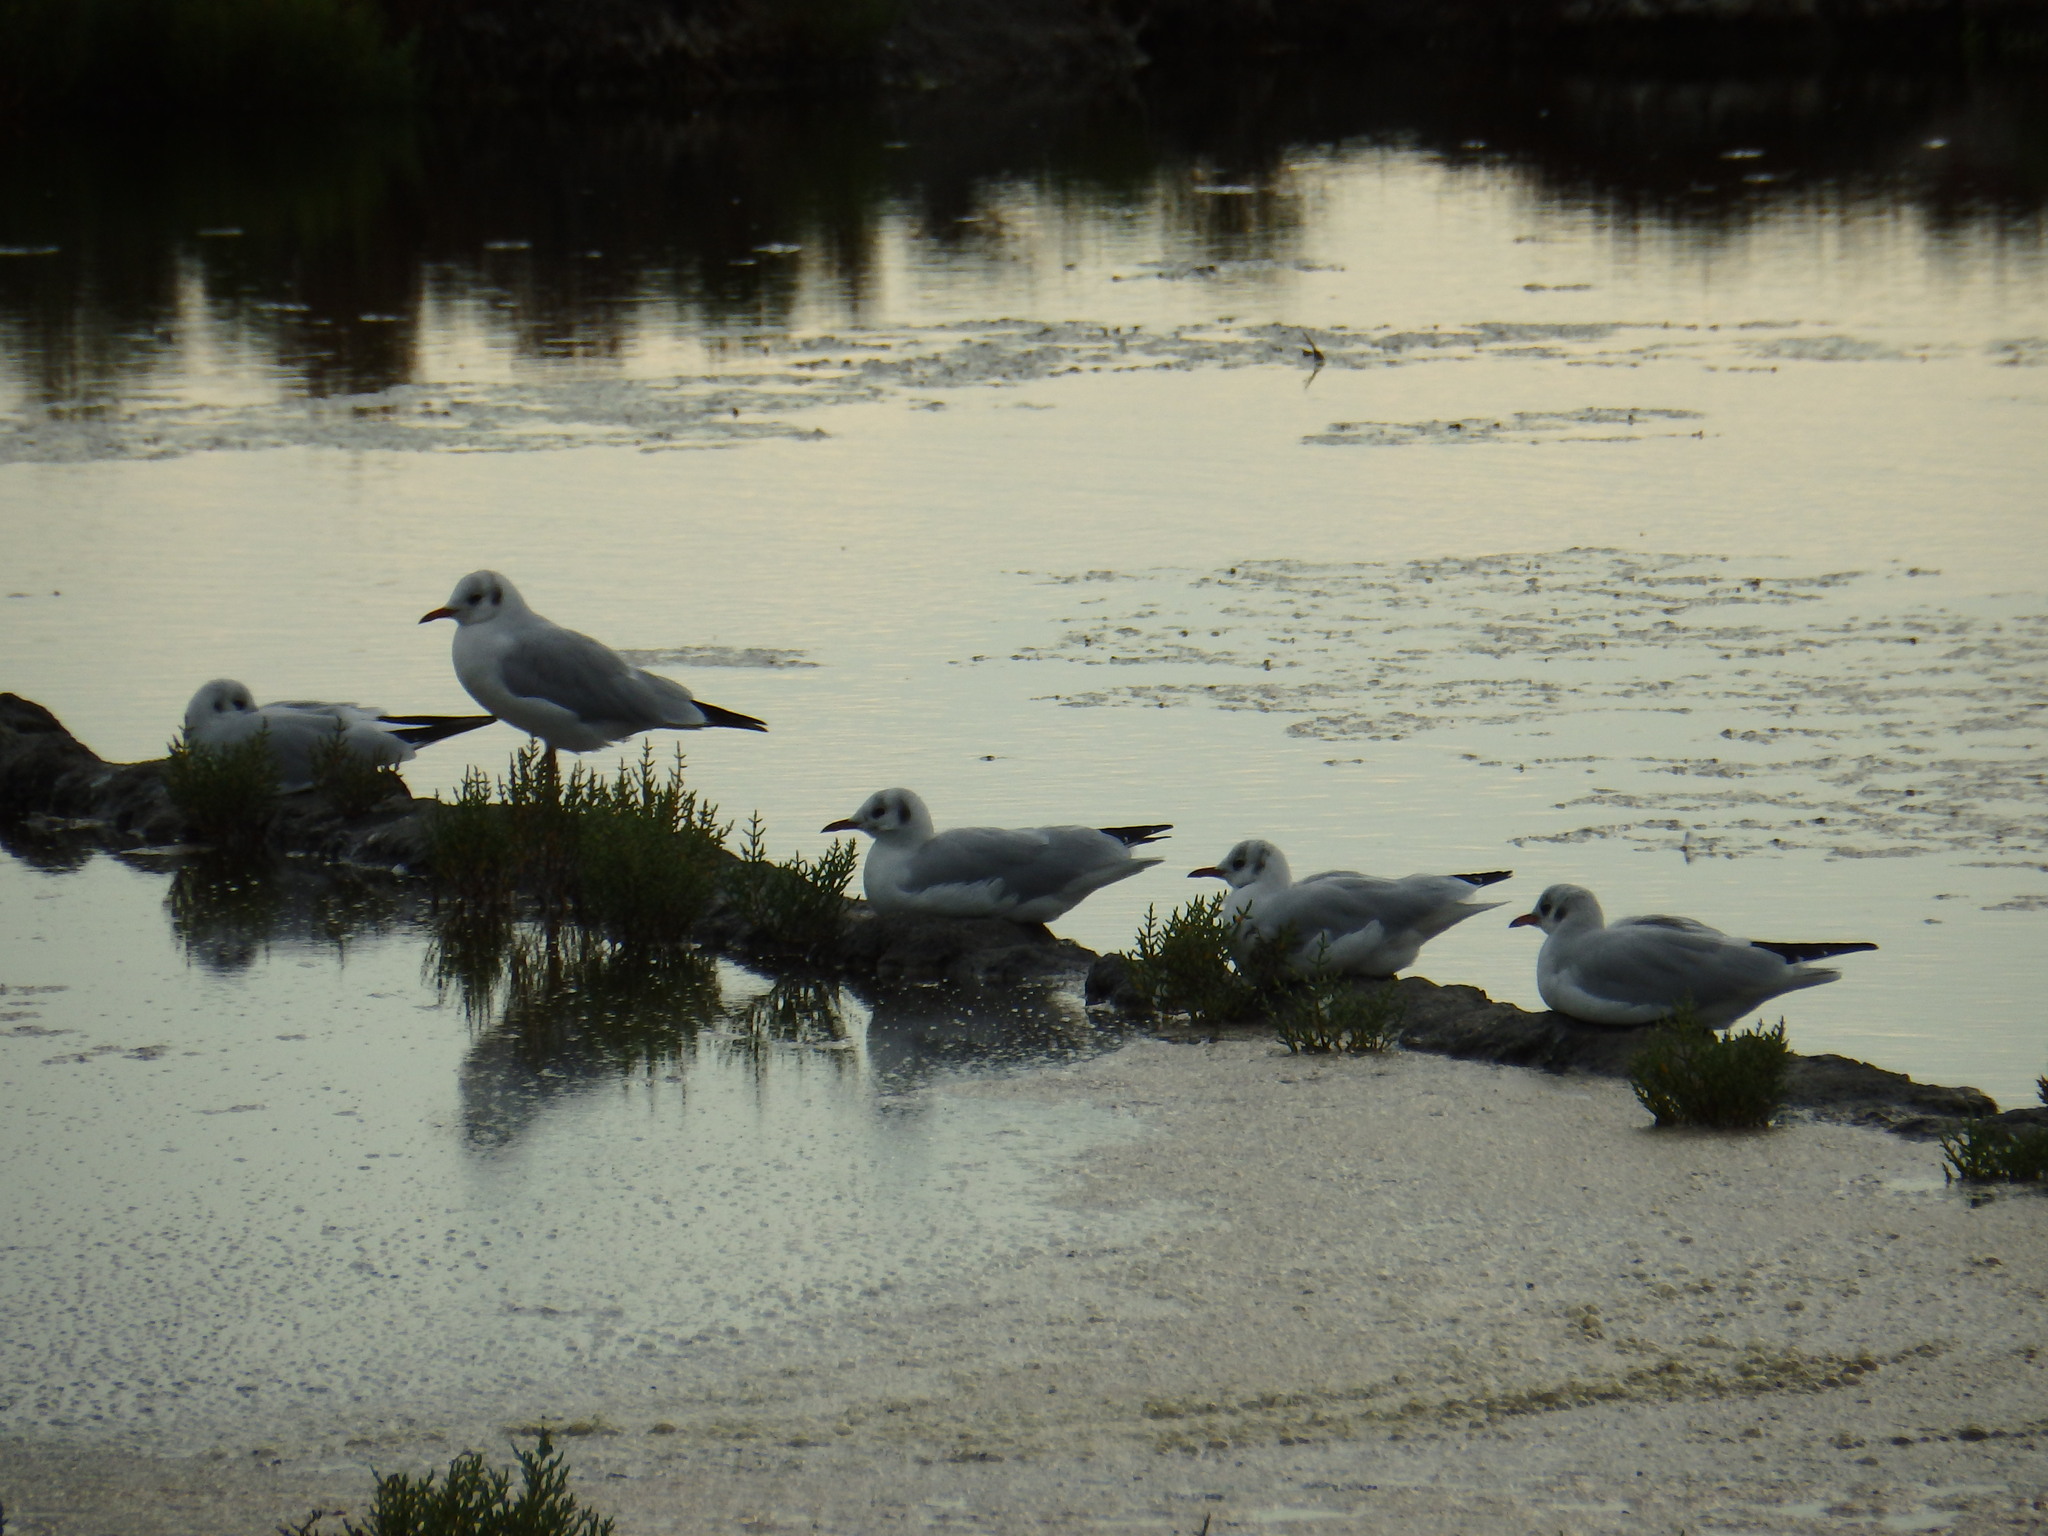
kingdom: Animalia
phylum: Chordata
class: Aves
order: Charadriiformes
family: Laridae
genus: Chroicocephalus
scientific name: Chroicocephalus ridibundus
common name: Black-headed gull
